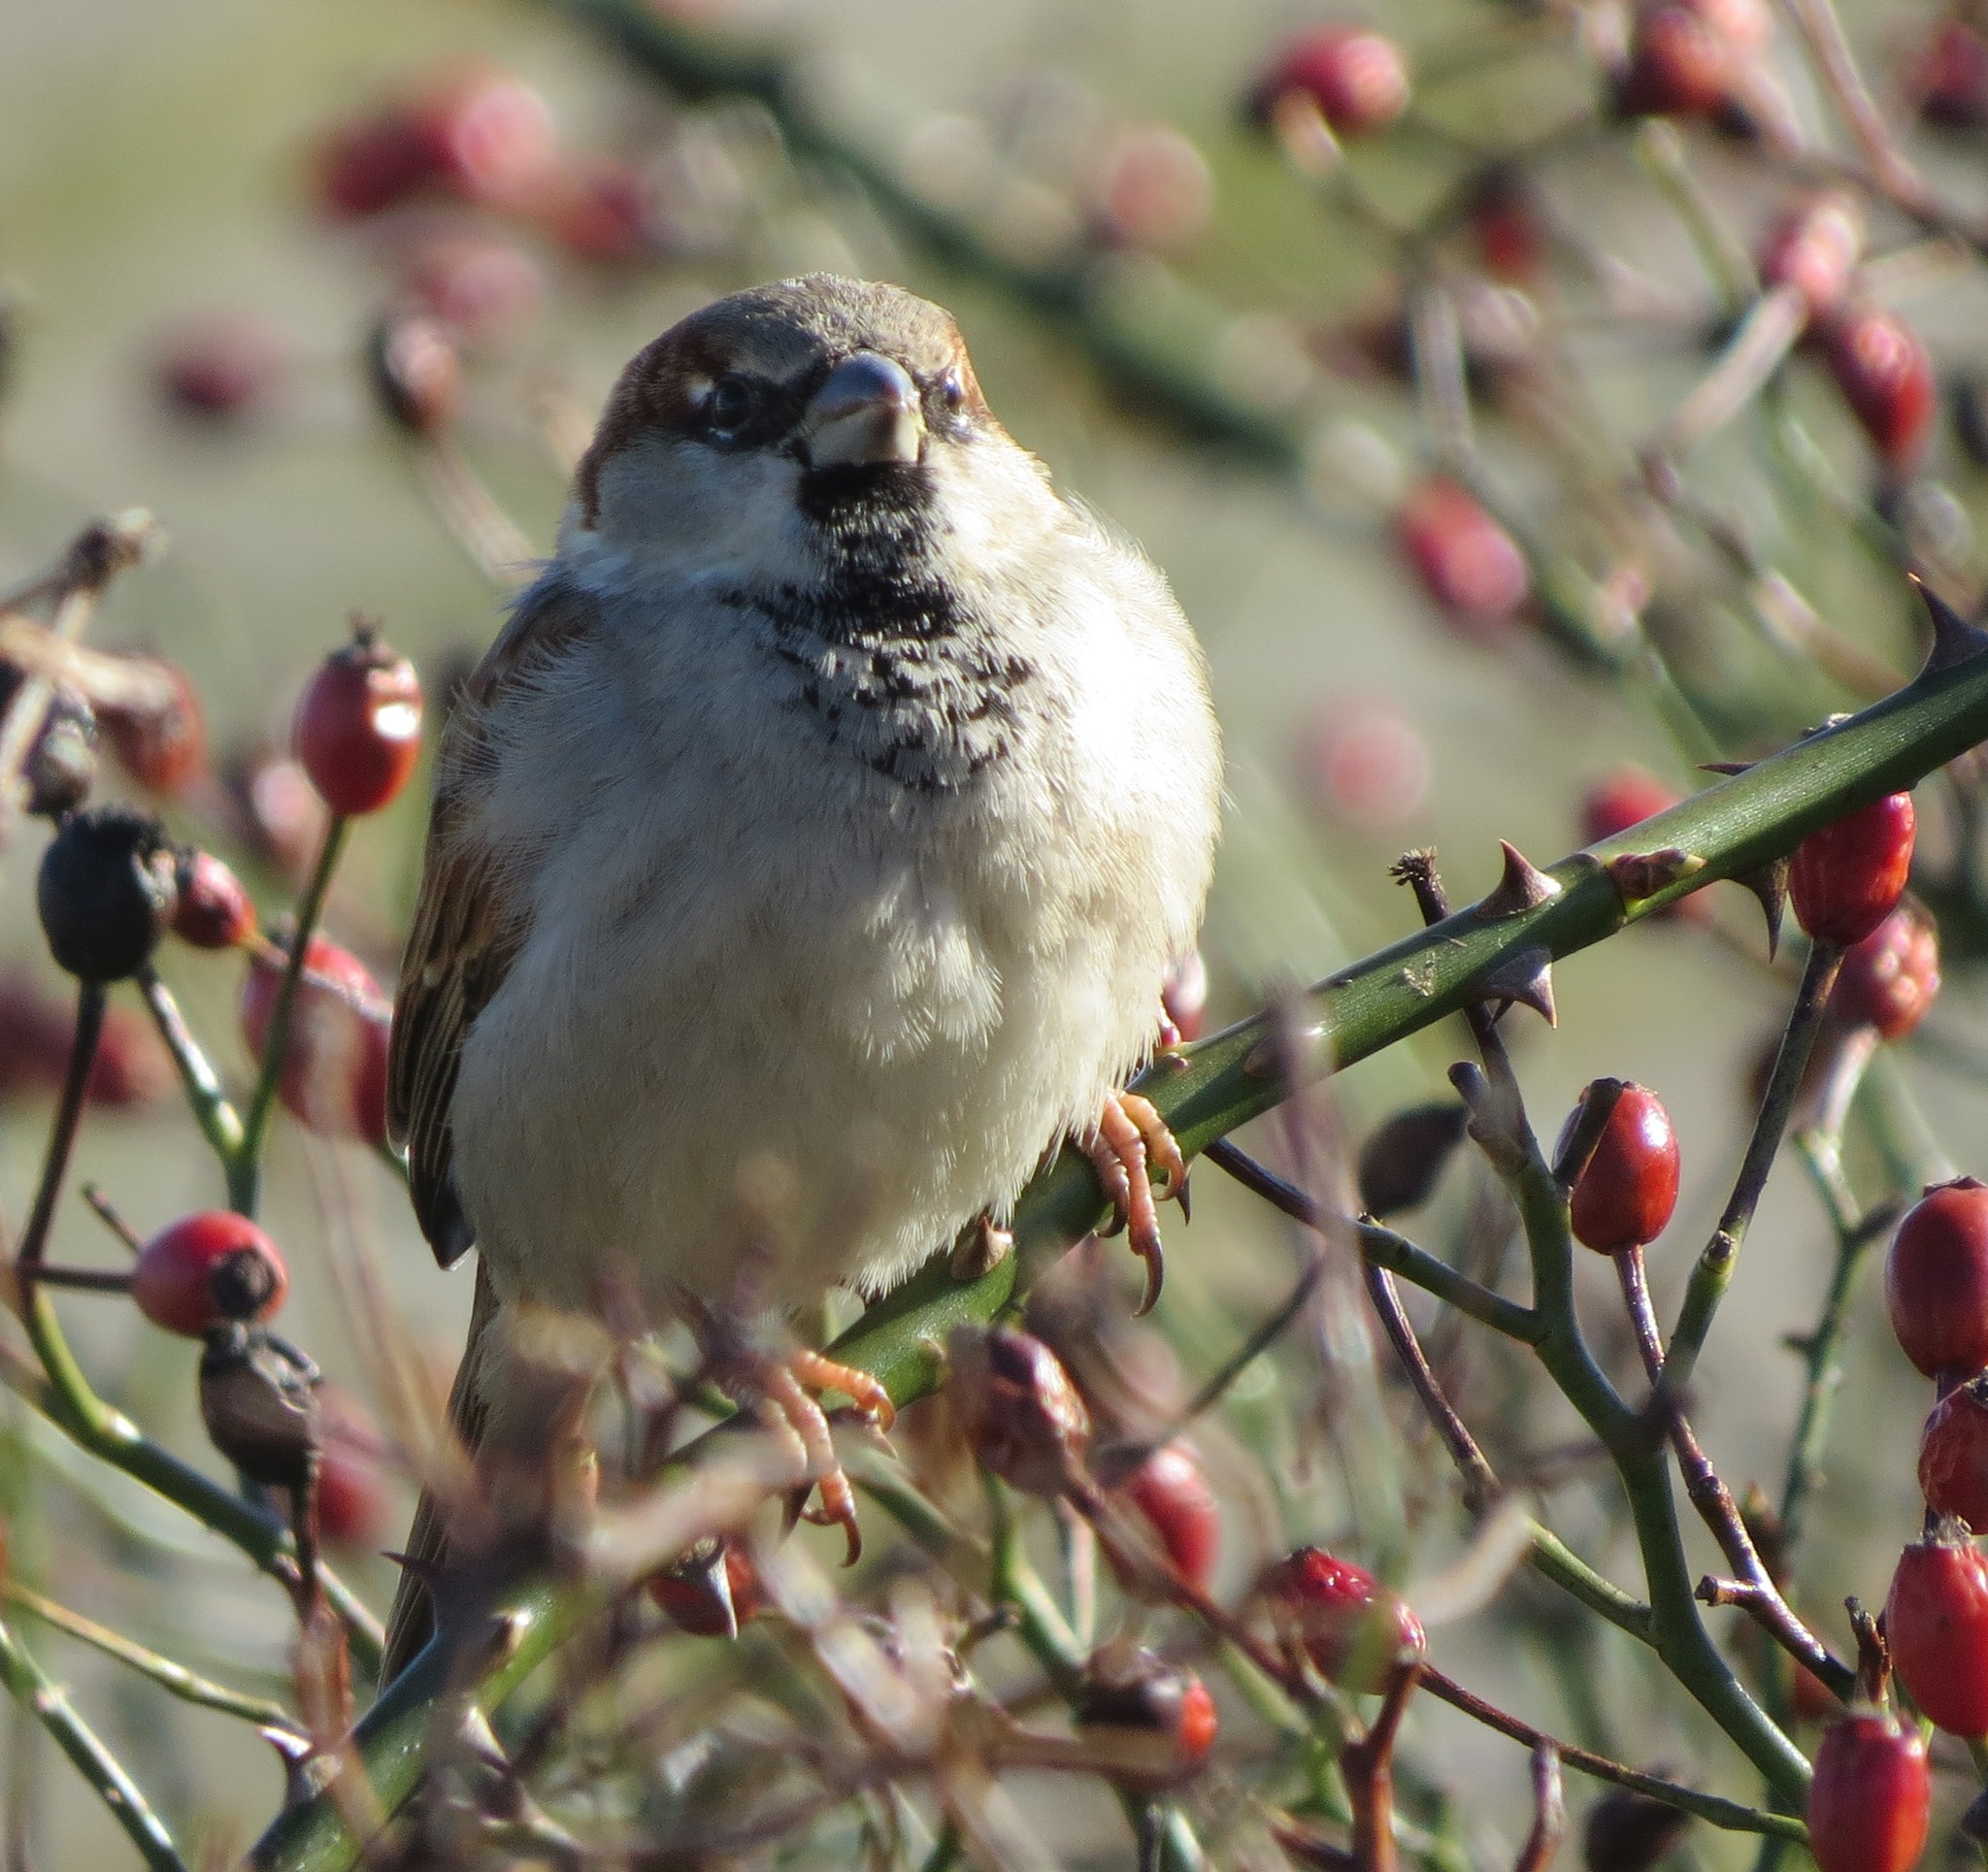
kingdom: Animalia
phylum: Chordata
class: Aves
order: Passeriformes
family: Passeridae
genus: Passer
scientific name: Passer domesticus
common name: House sparrow
